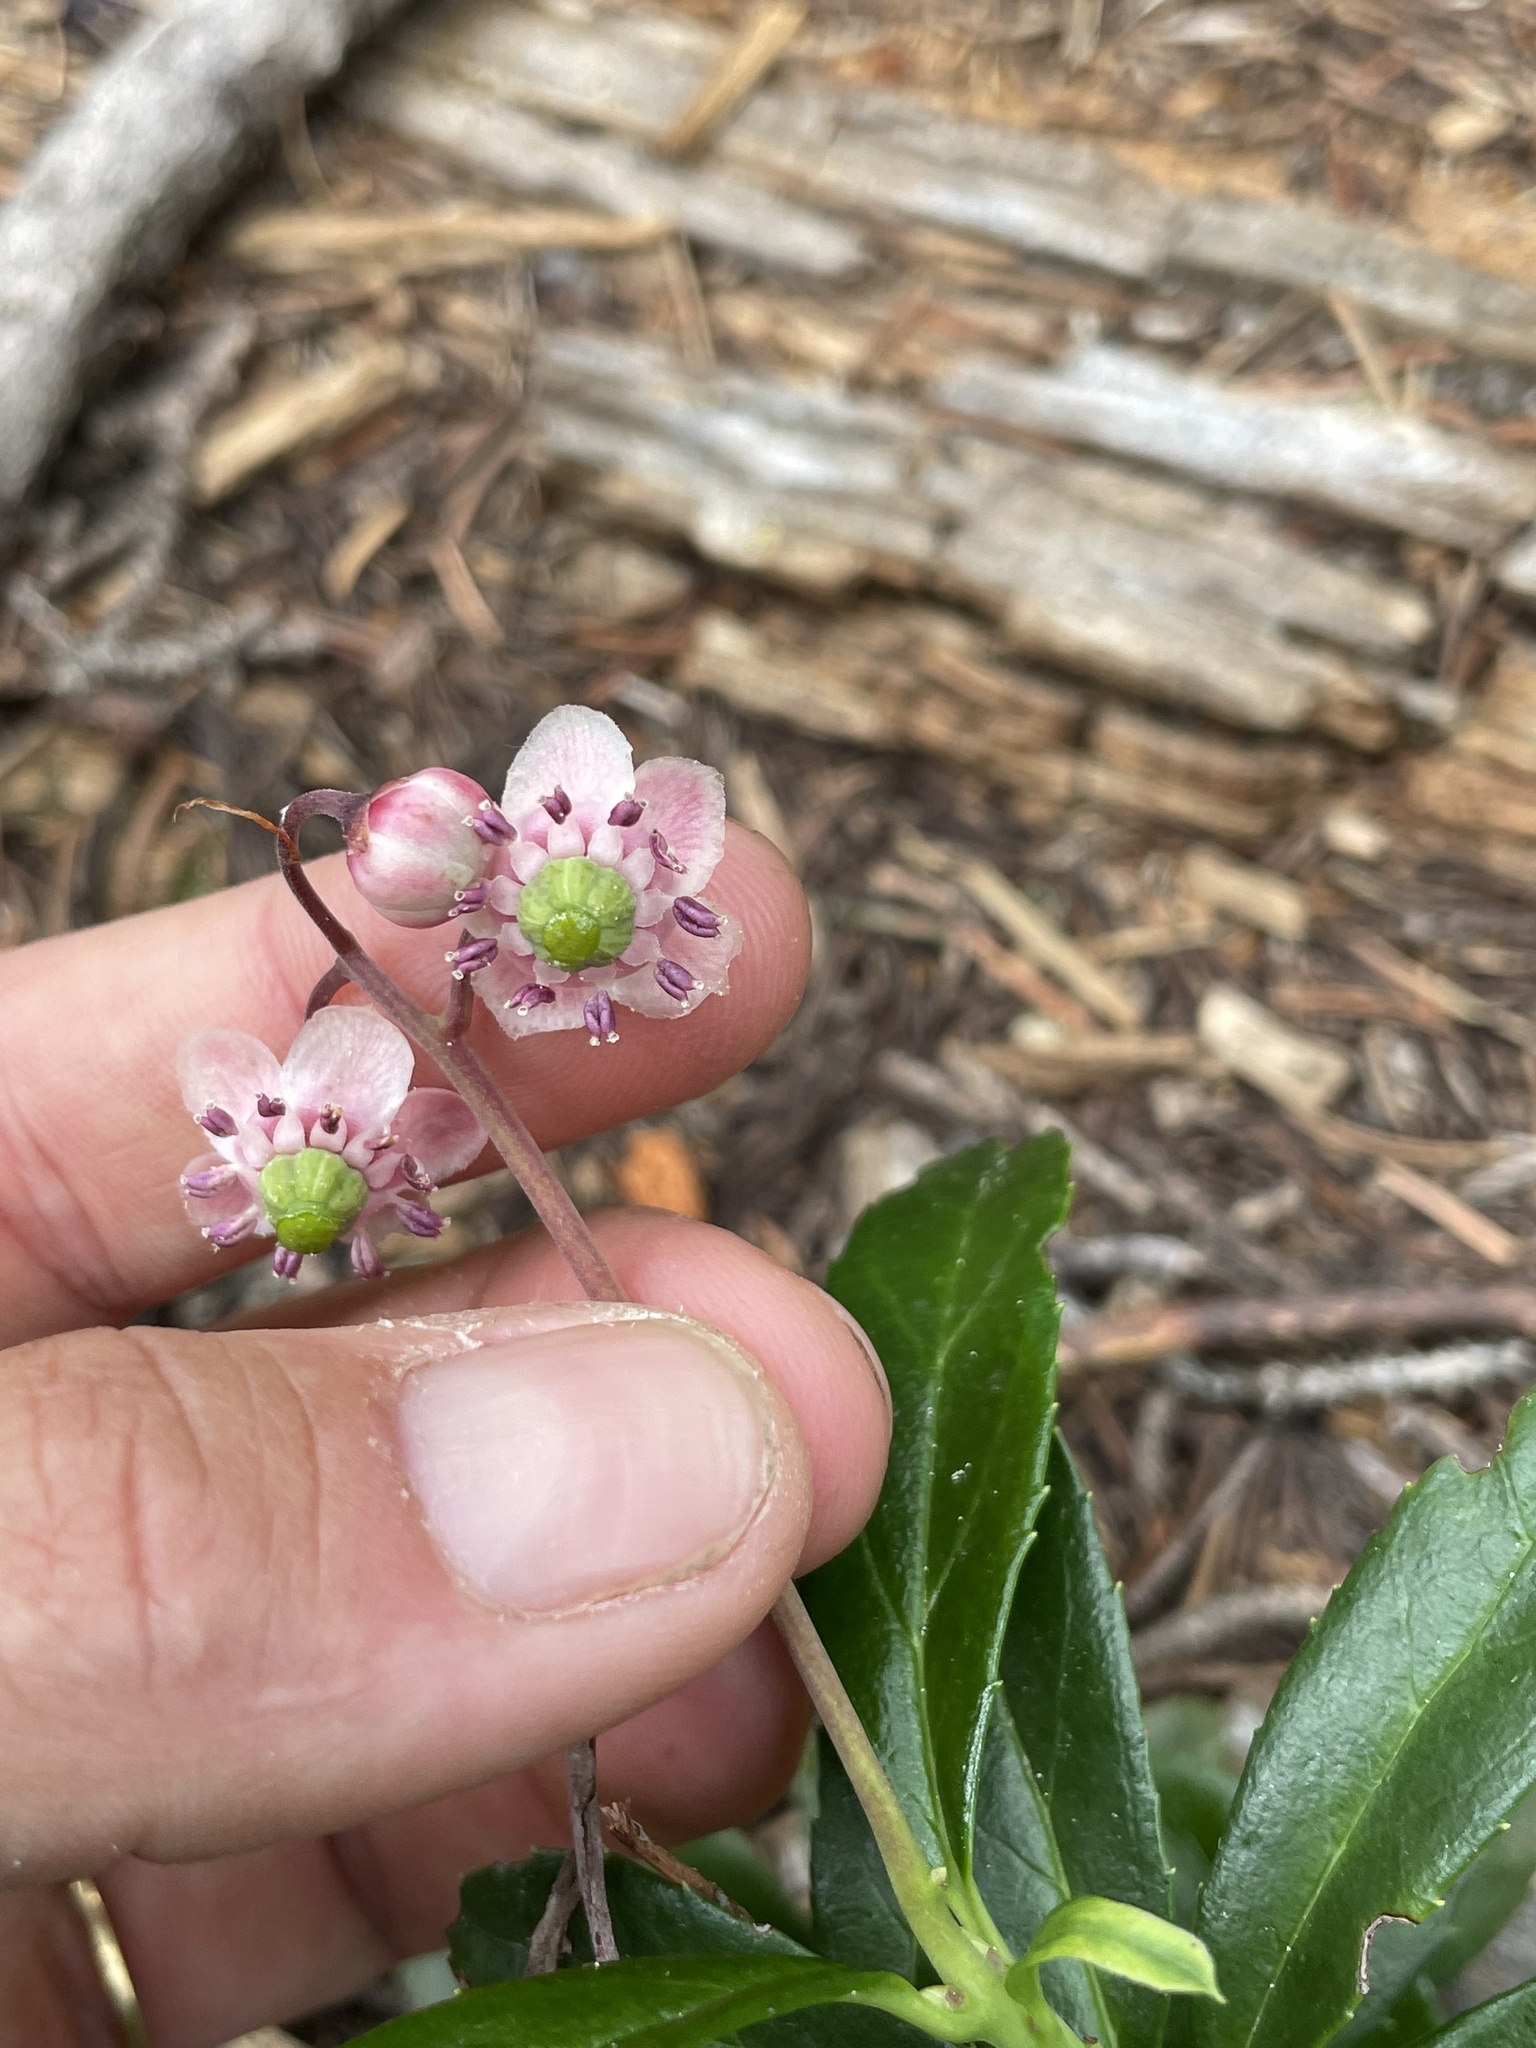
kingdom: Plantae
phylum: Tracheophyta
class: Magnoliopsida
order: Ericales
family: Ericaceae
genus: Chimaphila
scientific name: Chimaphila umbellata
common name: Pipsissewa
